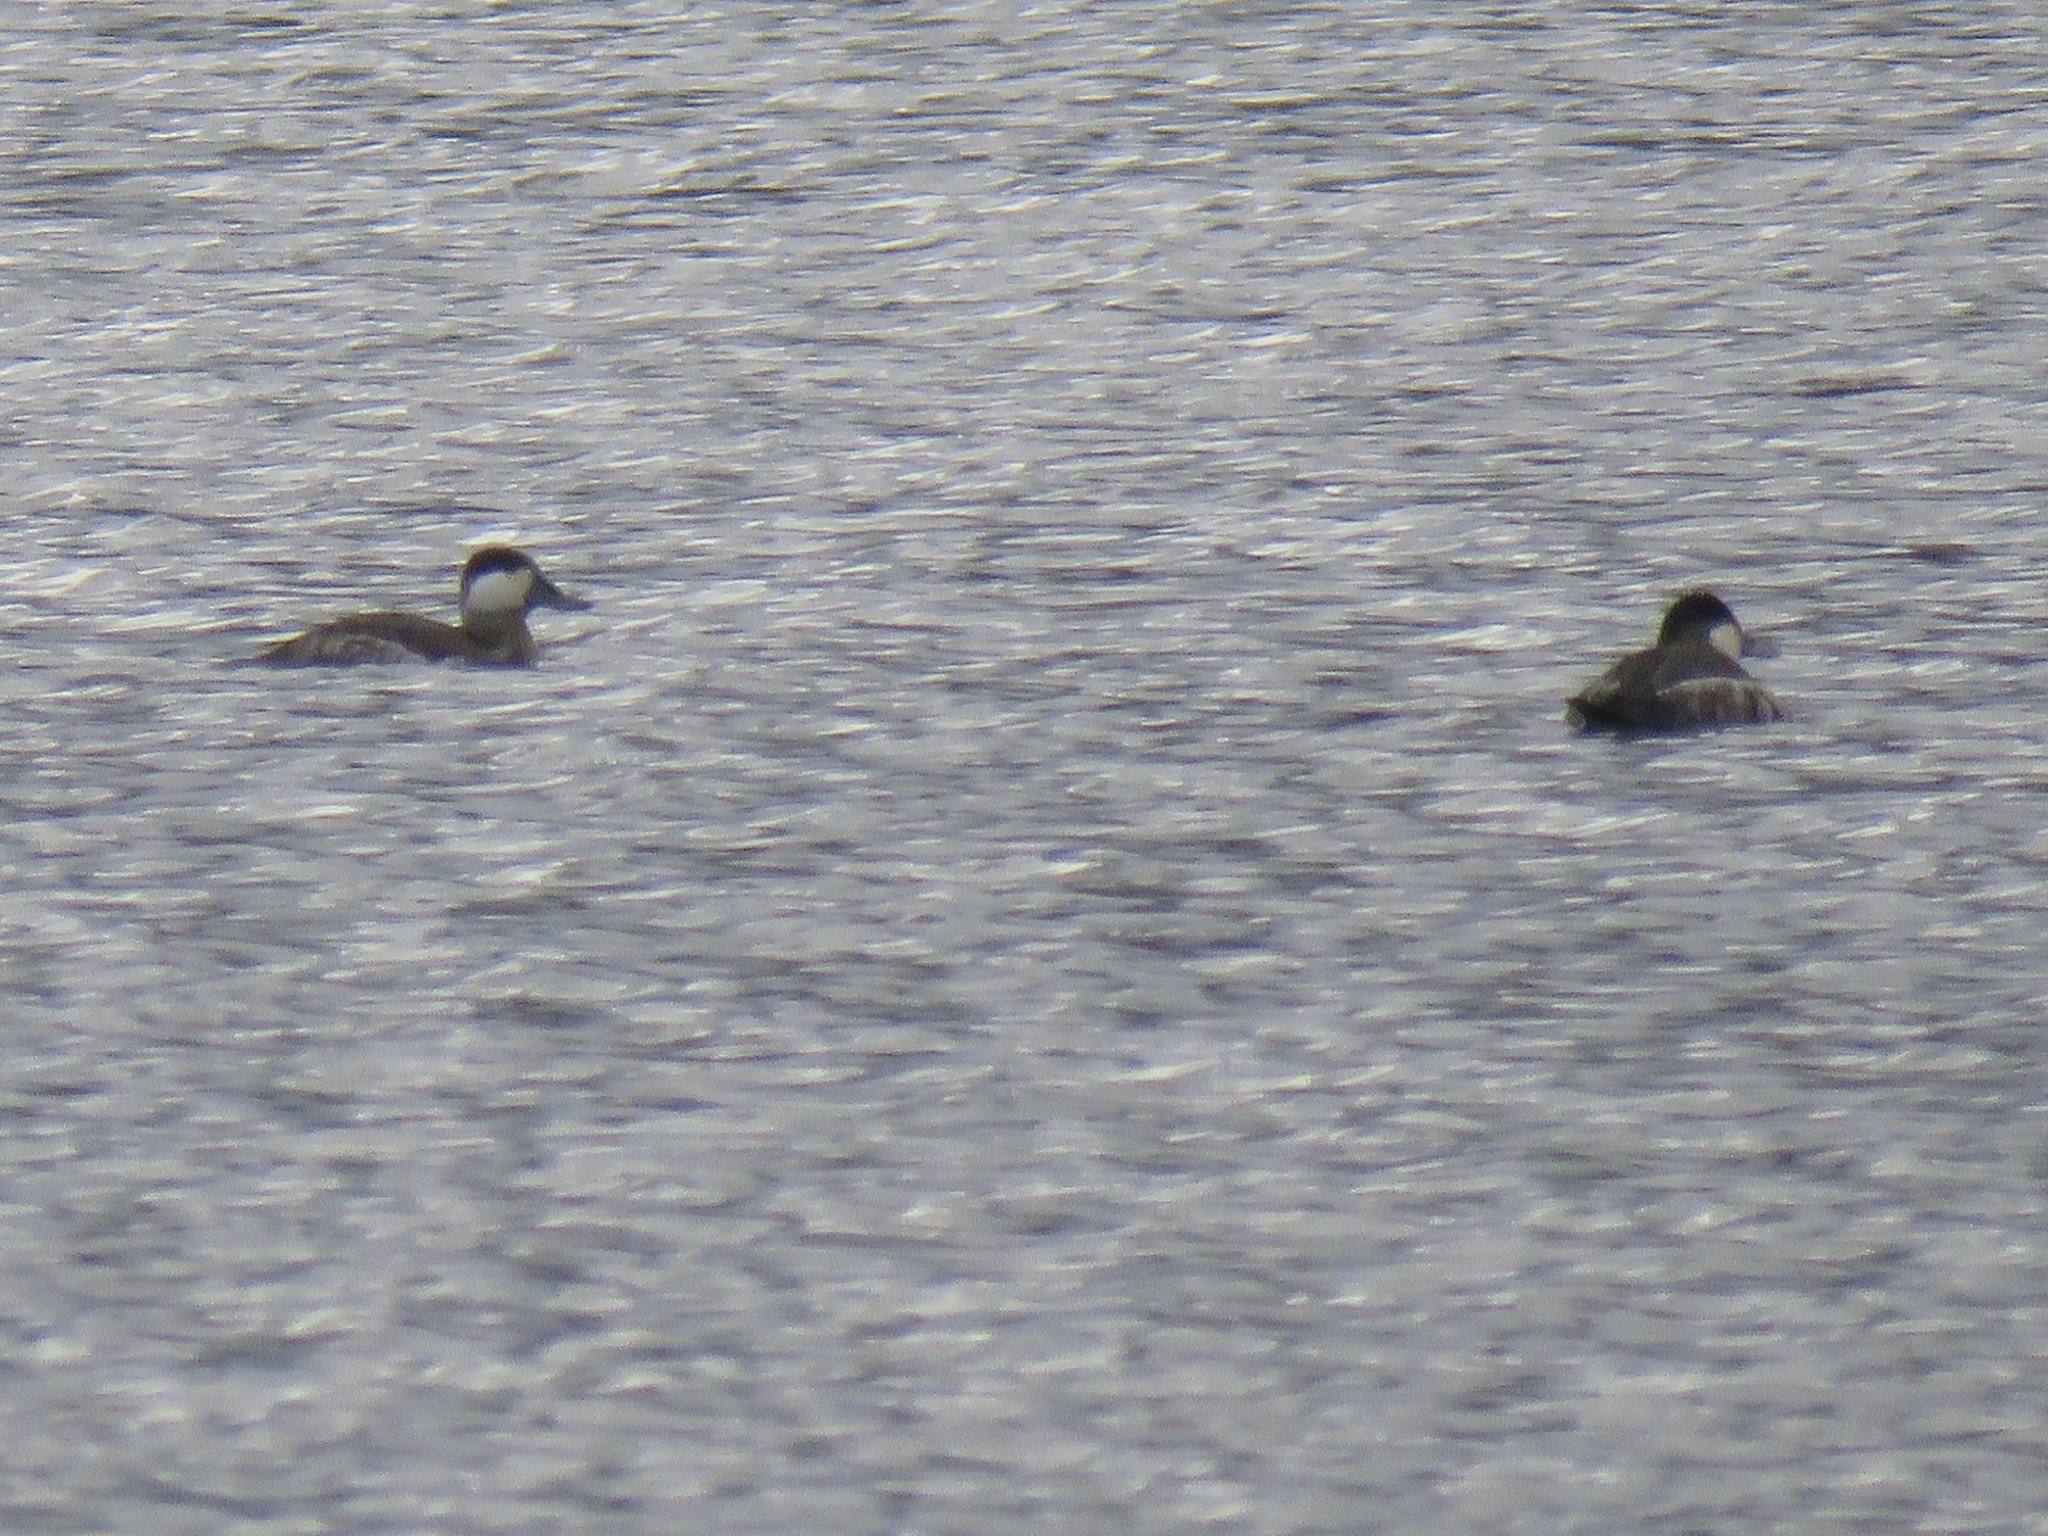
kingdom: Animalia
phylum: Chordata
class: Aves
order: Anseriformes
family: Anatidae
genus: Oxyura
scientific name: Oxyura jamaicensis
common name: Ruddy duck
